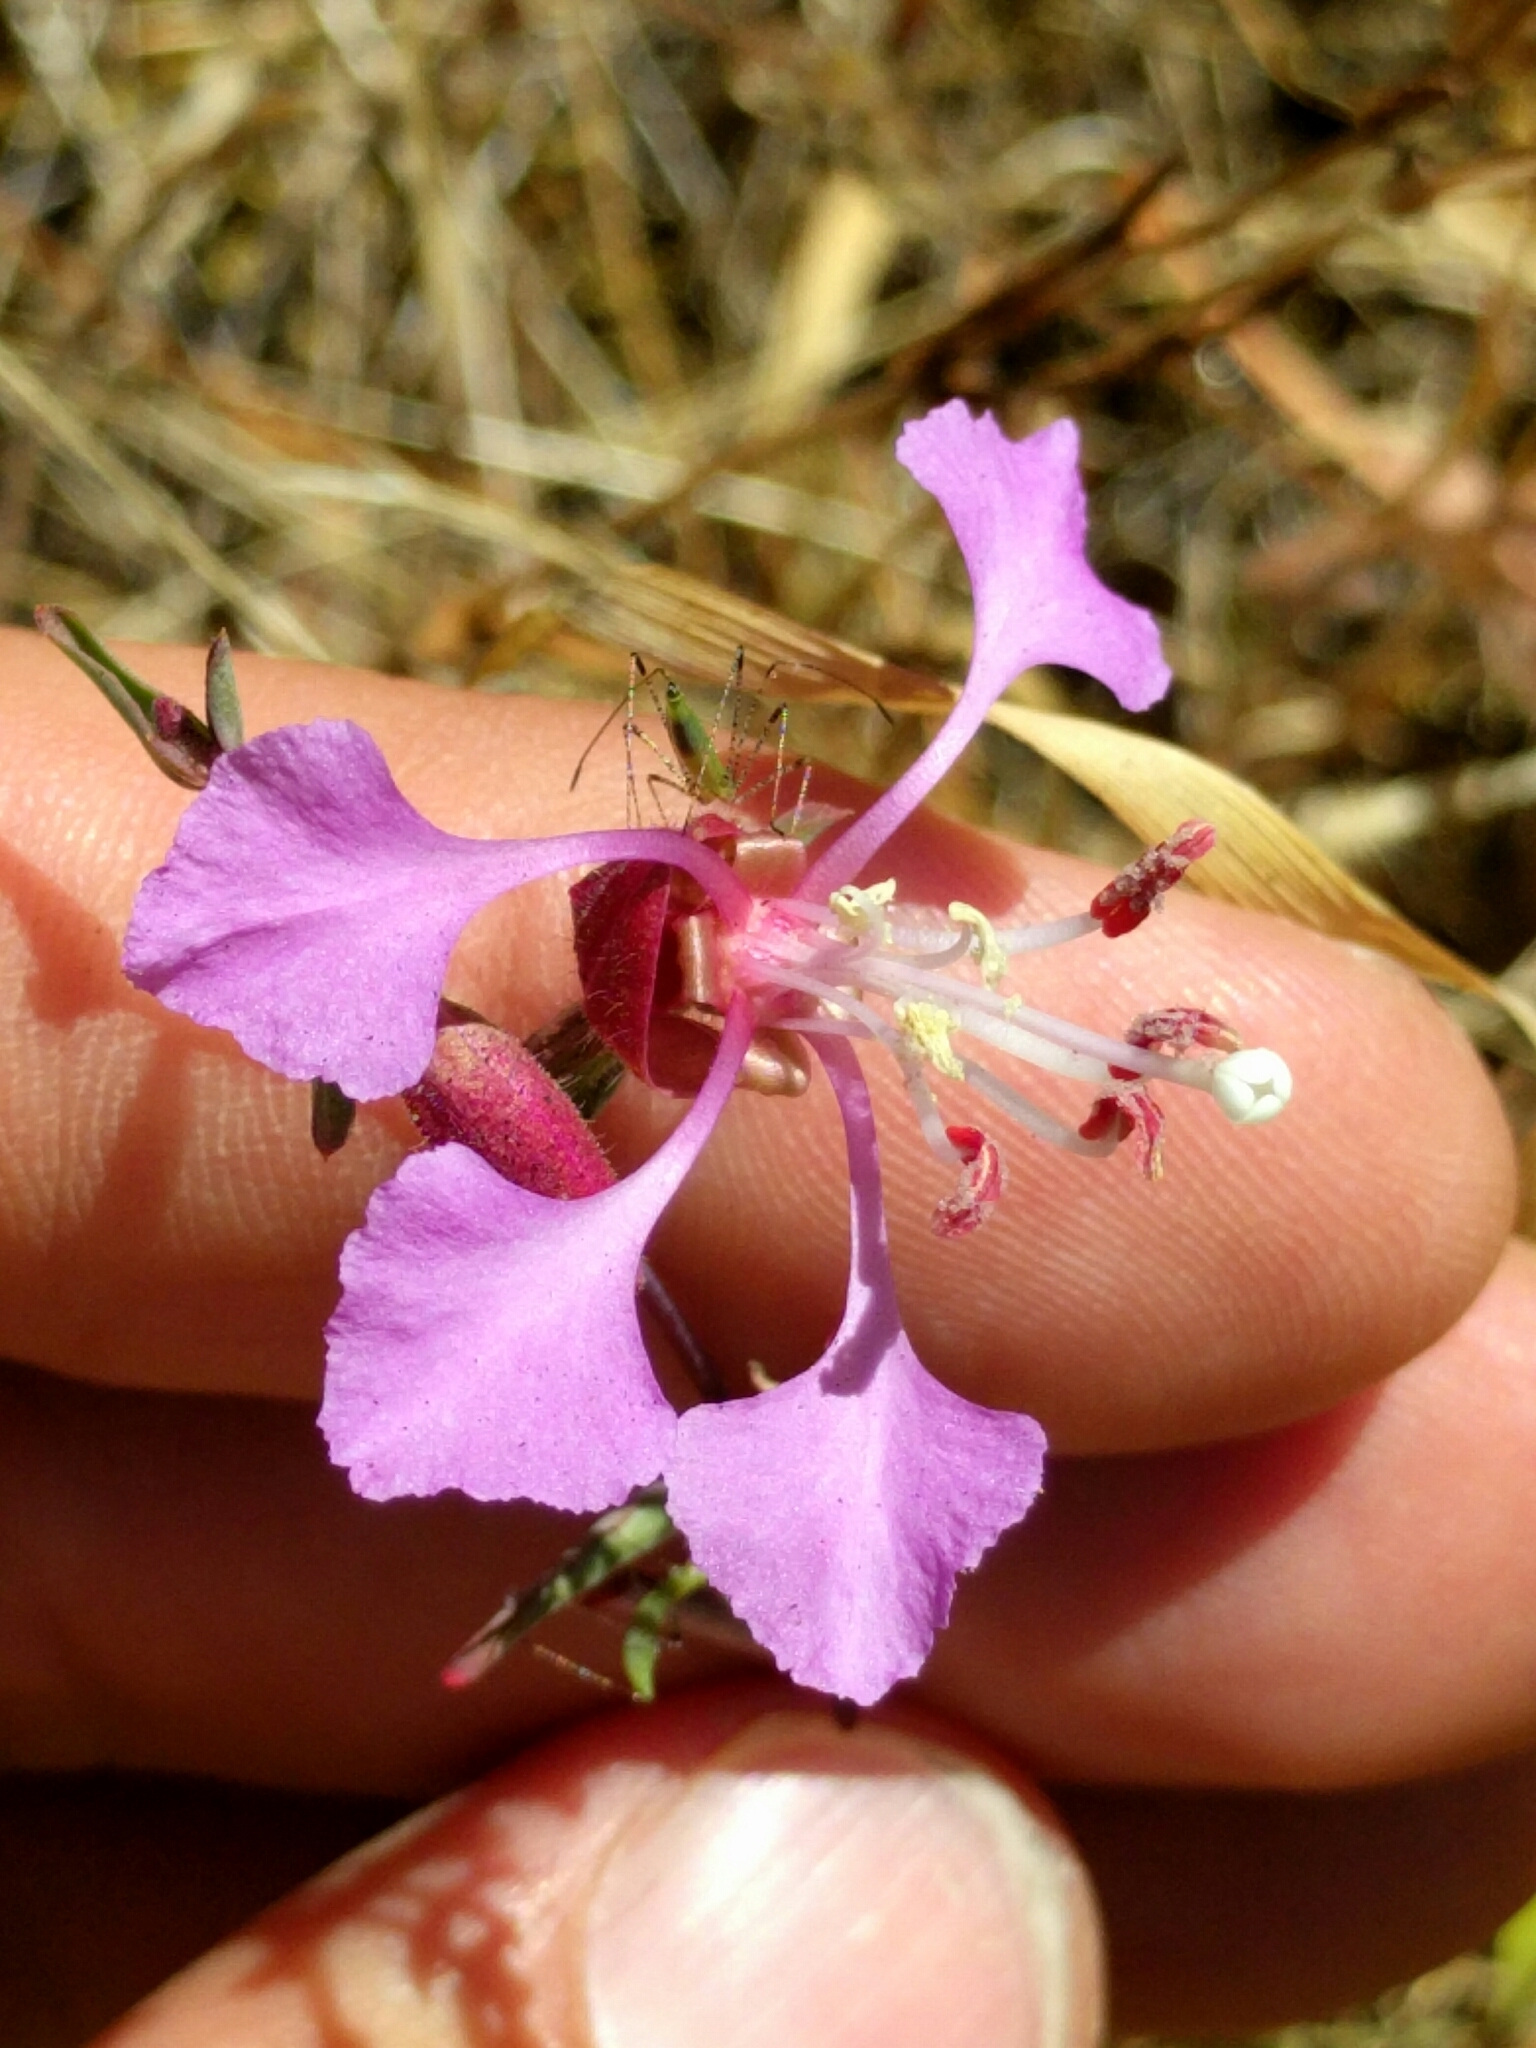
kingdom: Plantae
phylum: Tracheophyta
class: Magnoliopsida
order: Myrtales
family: Onagraceae
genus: Clarkia
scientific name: Clarkia unguiculata
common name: Clarkia
